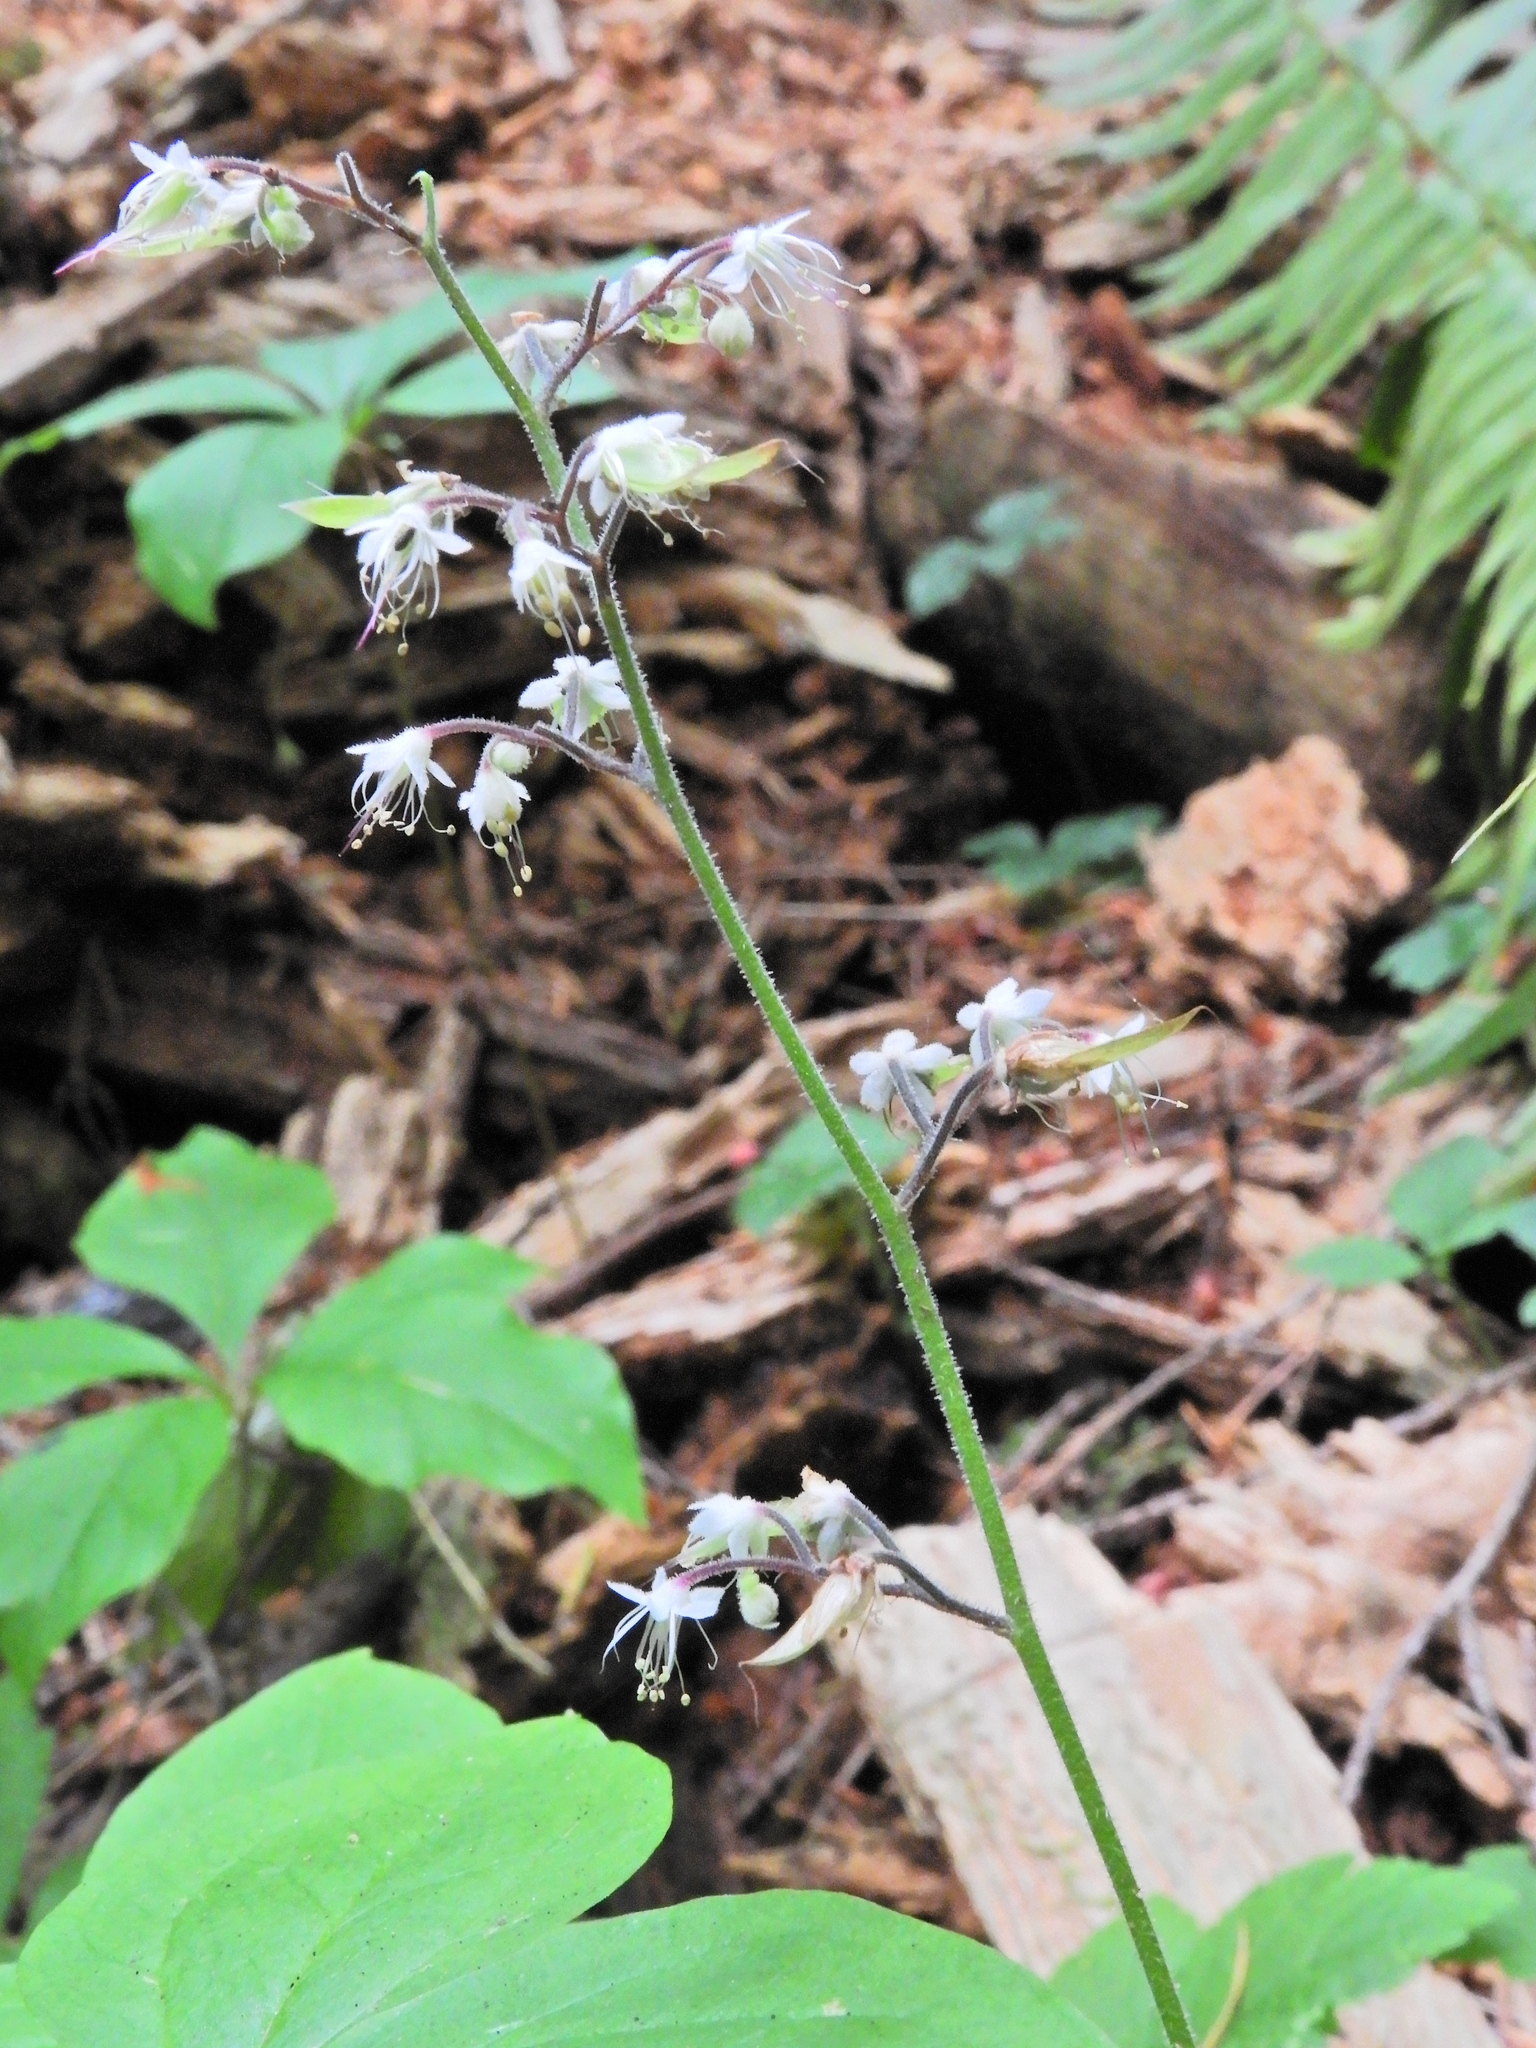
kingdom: Plantae
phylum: Tracheophyta
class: Magnoliopsida
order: Saxifragales
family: Saxifragaceae
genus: Tiarella
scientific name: Tiarella trifoliata
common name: Sugar-scoop
